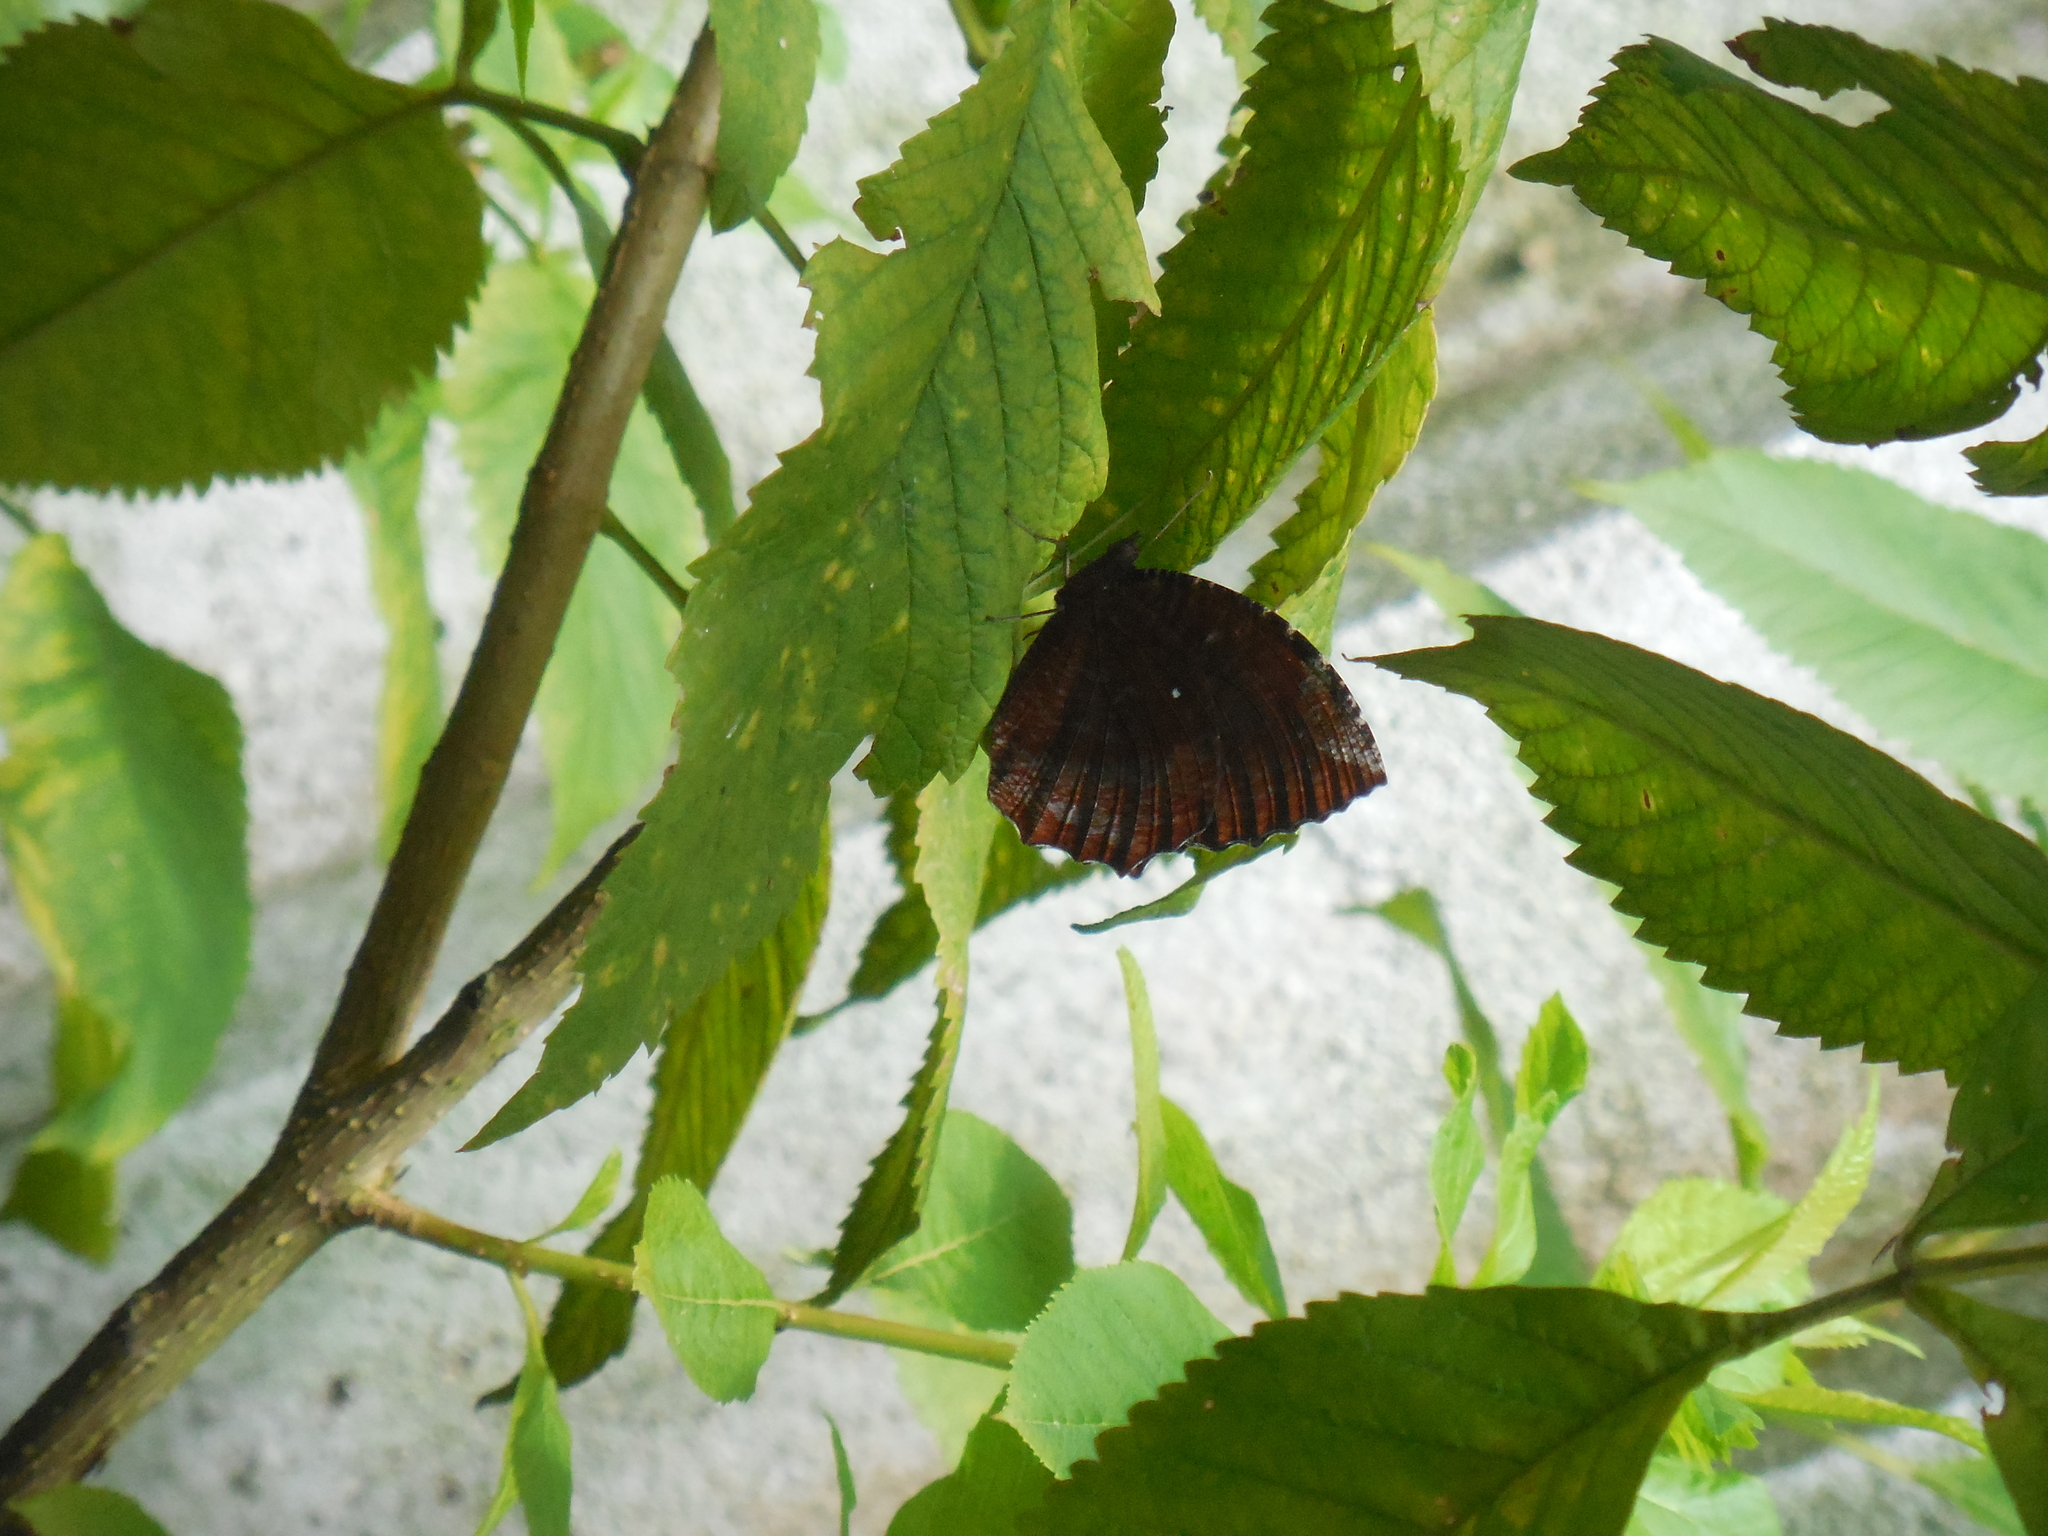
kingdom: Animalia
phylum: Arthropoda
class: Insecta
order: Lepidoptera
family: Nymphalidae
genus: Elymnias
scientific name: Elymnias hypermnestra
